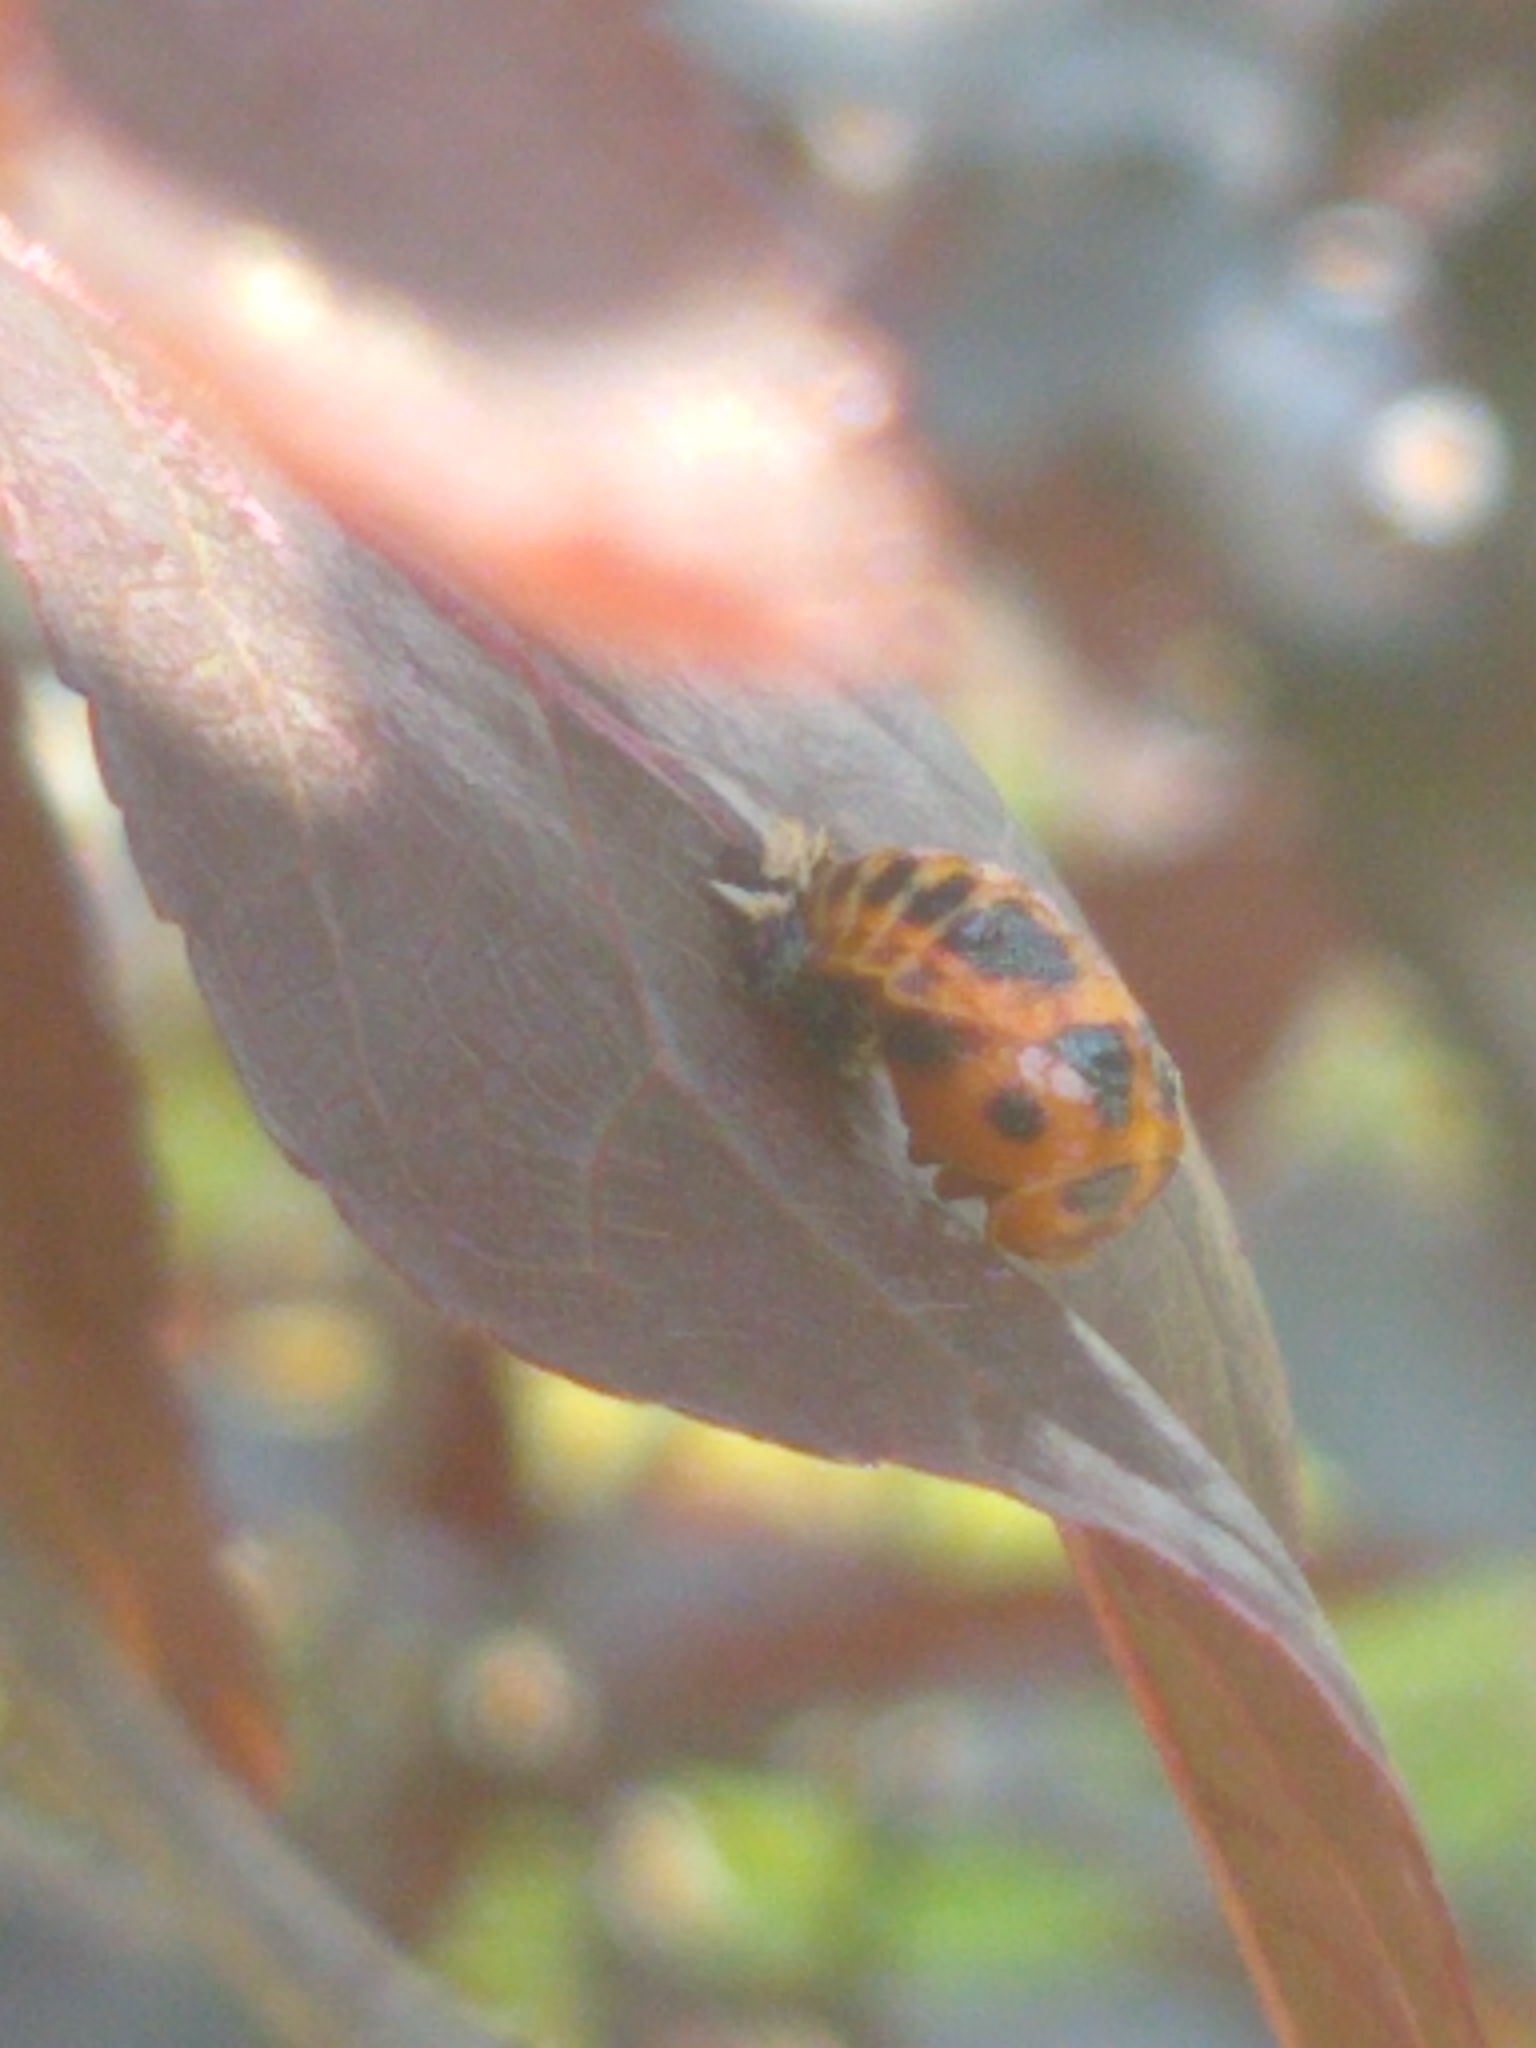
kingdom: Animalia
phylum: Arthropoda
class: Insecta
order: Coleoptera
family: Coccinellidae
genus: Harmonia
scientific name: Harmonia axyridis
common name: Harlequin ladybird
